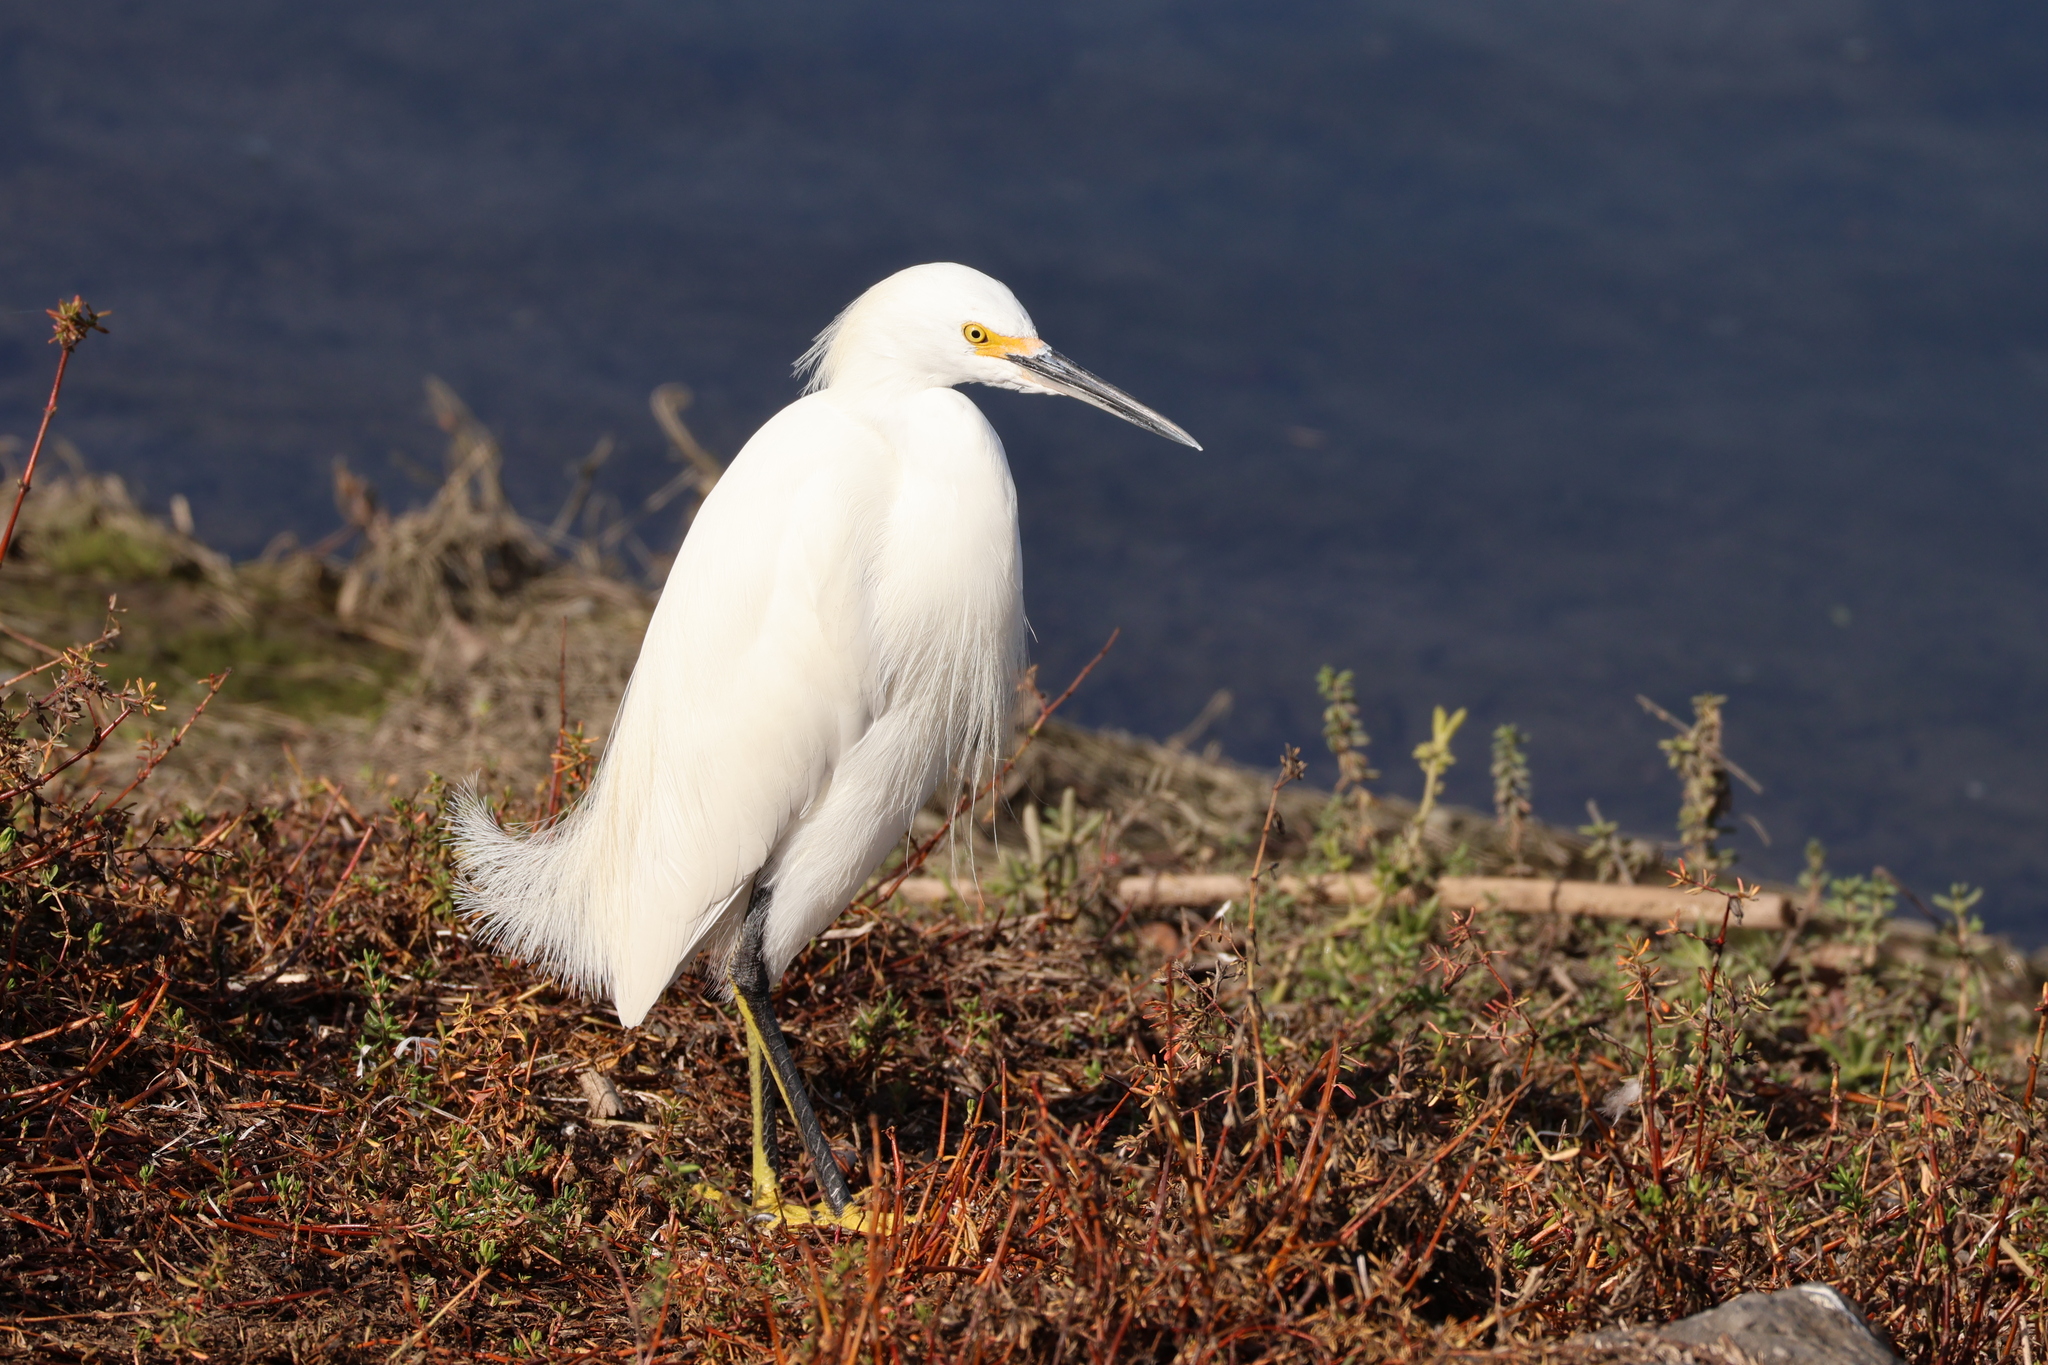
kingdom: Animalia
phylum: Chordata
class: Aves
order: Pelecaniformes
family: Ardeidae
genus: Egretta
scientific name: Egretta thula
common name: Snowy egret
